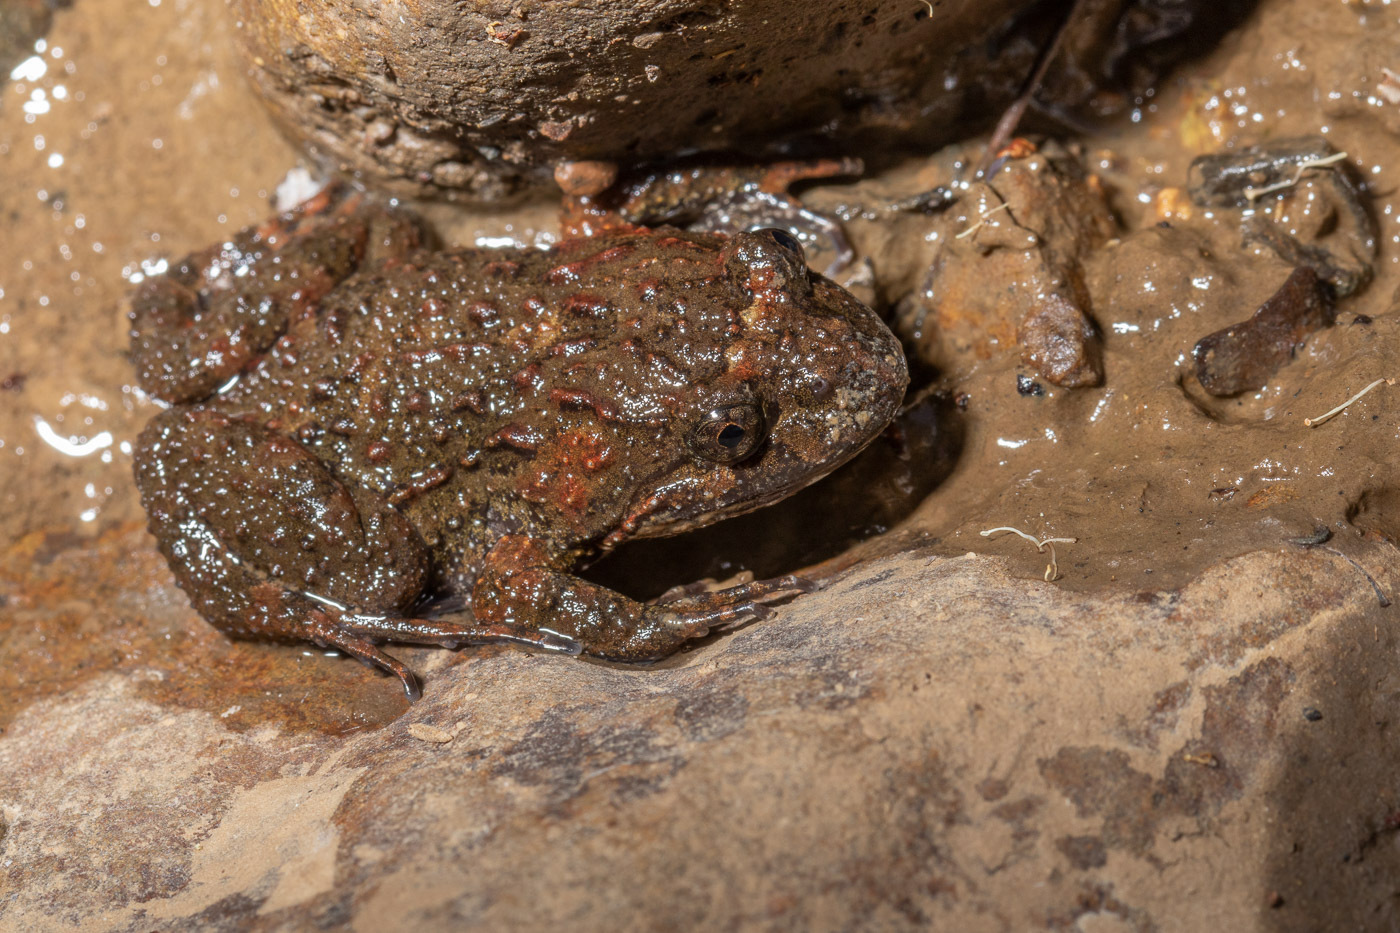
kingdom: Animalia
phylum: Chordata
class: Amphibia
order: Anura
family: Limnodynastidae
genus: Adelotus
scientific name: Adelotus brevis
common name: Tusked frog
